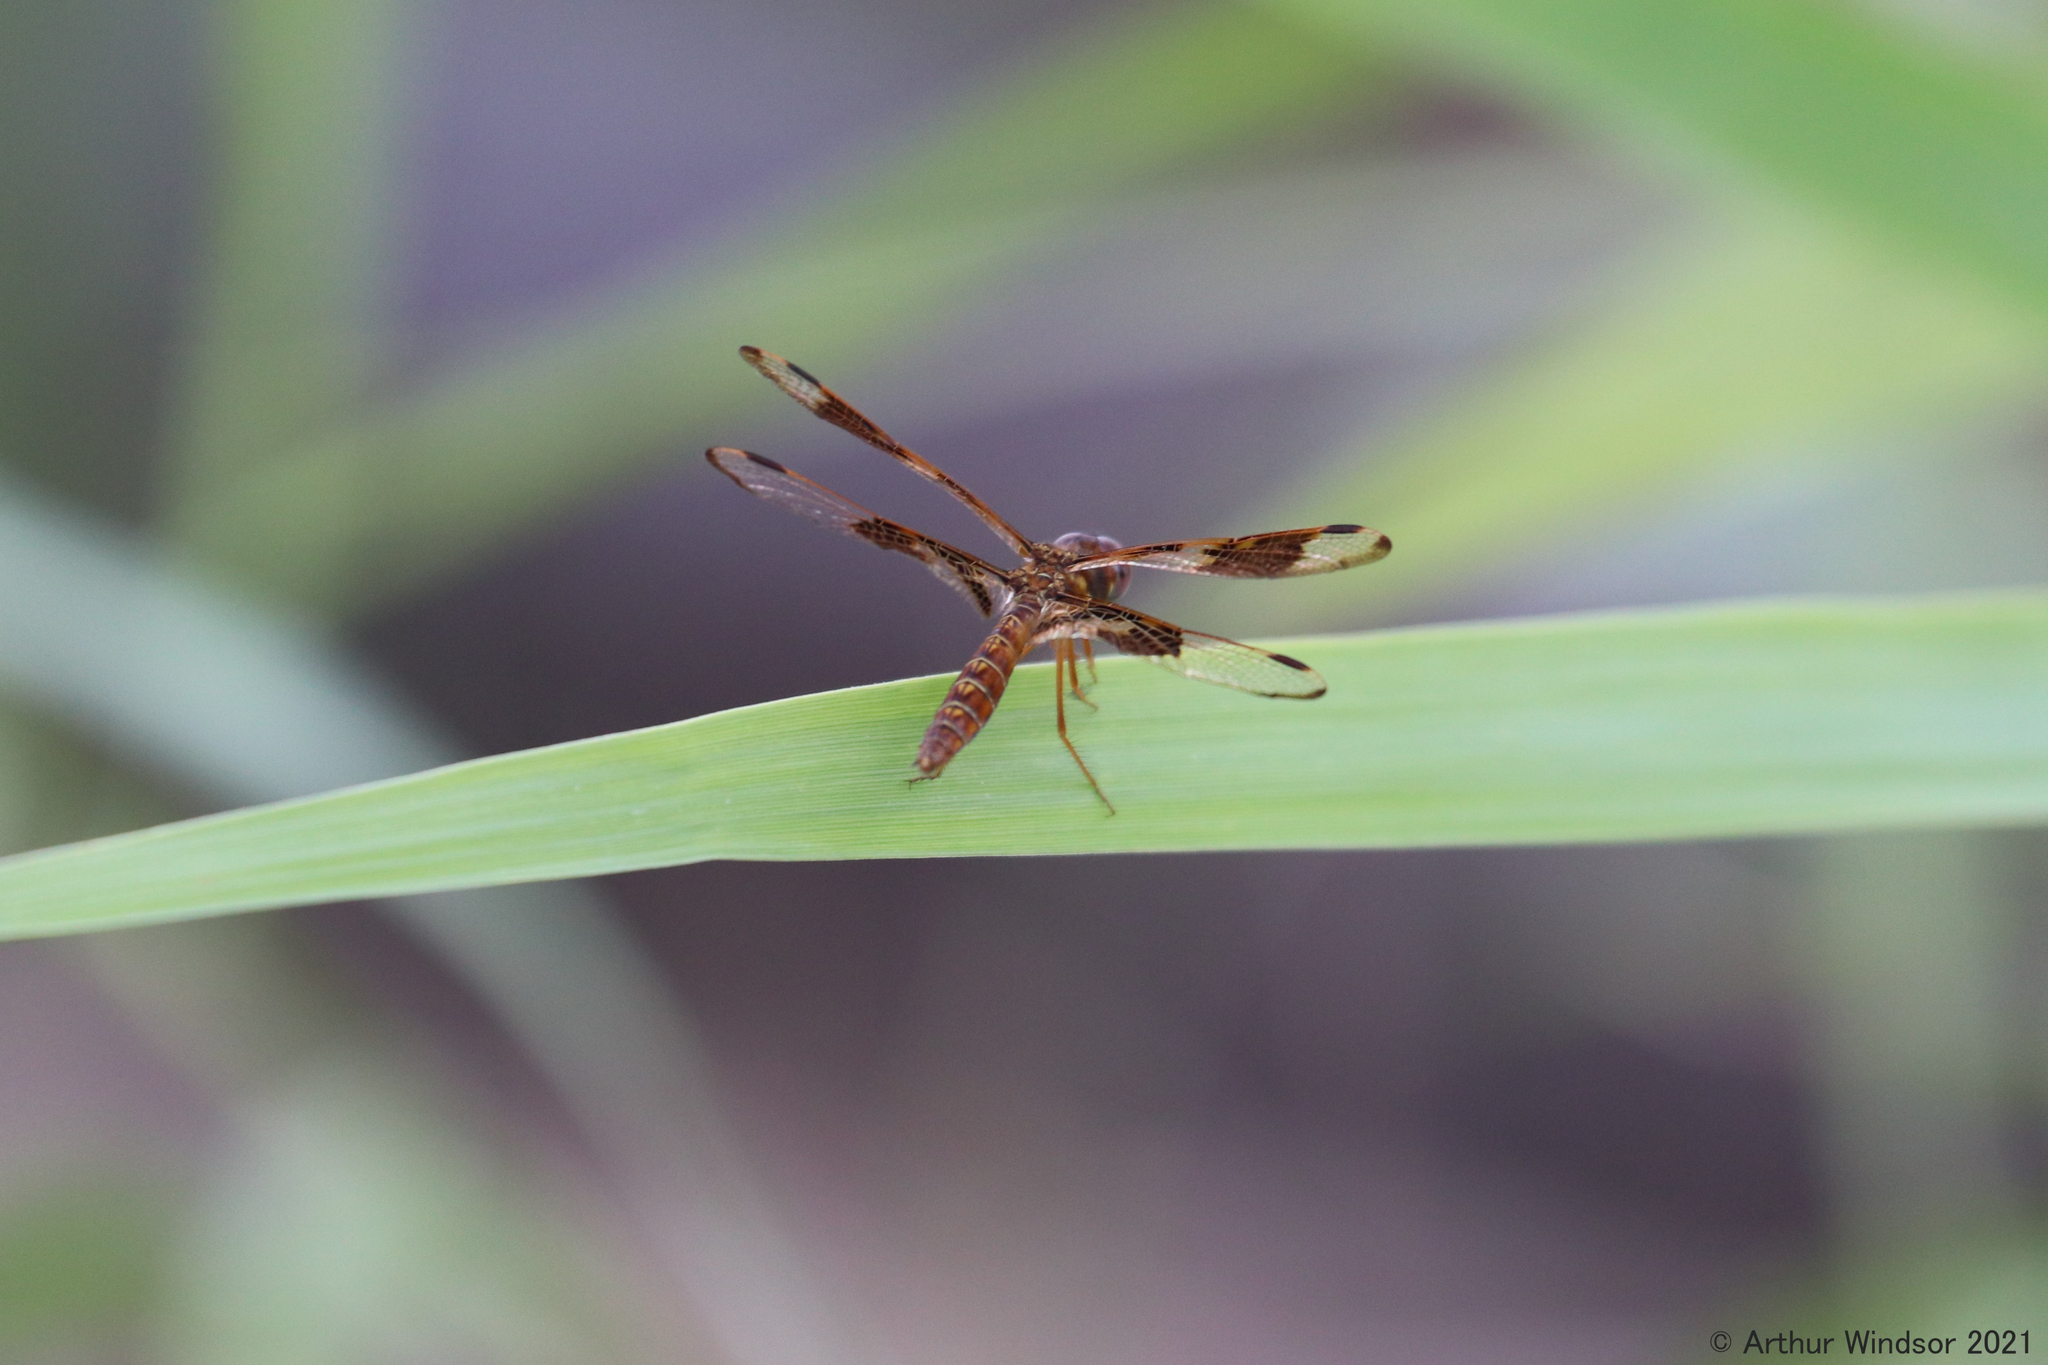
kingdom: Animalia
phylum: Arthropoda
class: Insecta
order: Odonata
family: Libellulidae
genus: Perithemis
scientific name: Perithemis tenera
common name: Eastern amberwing
